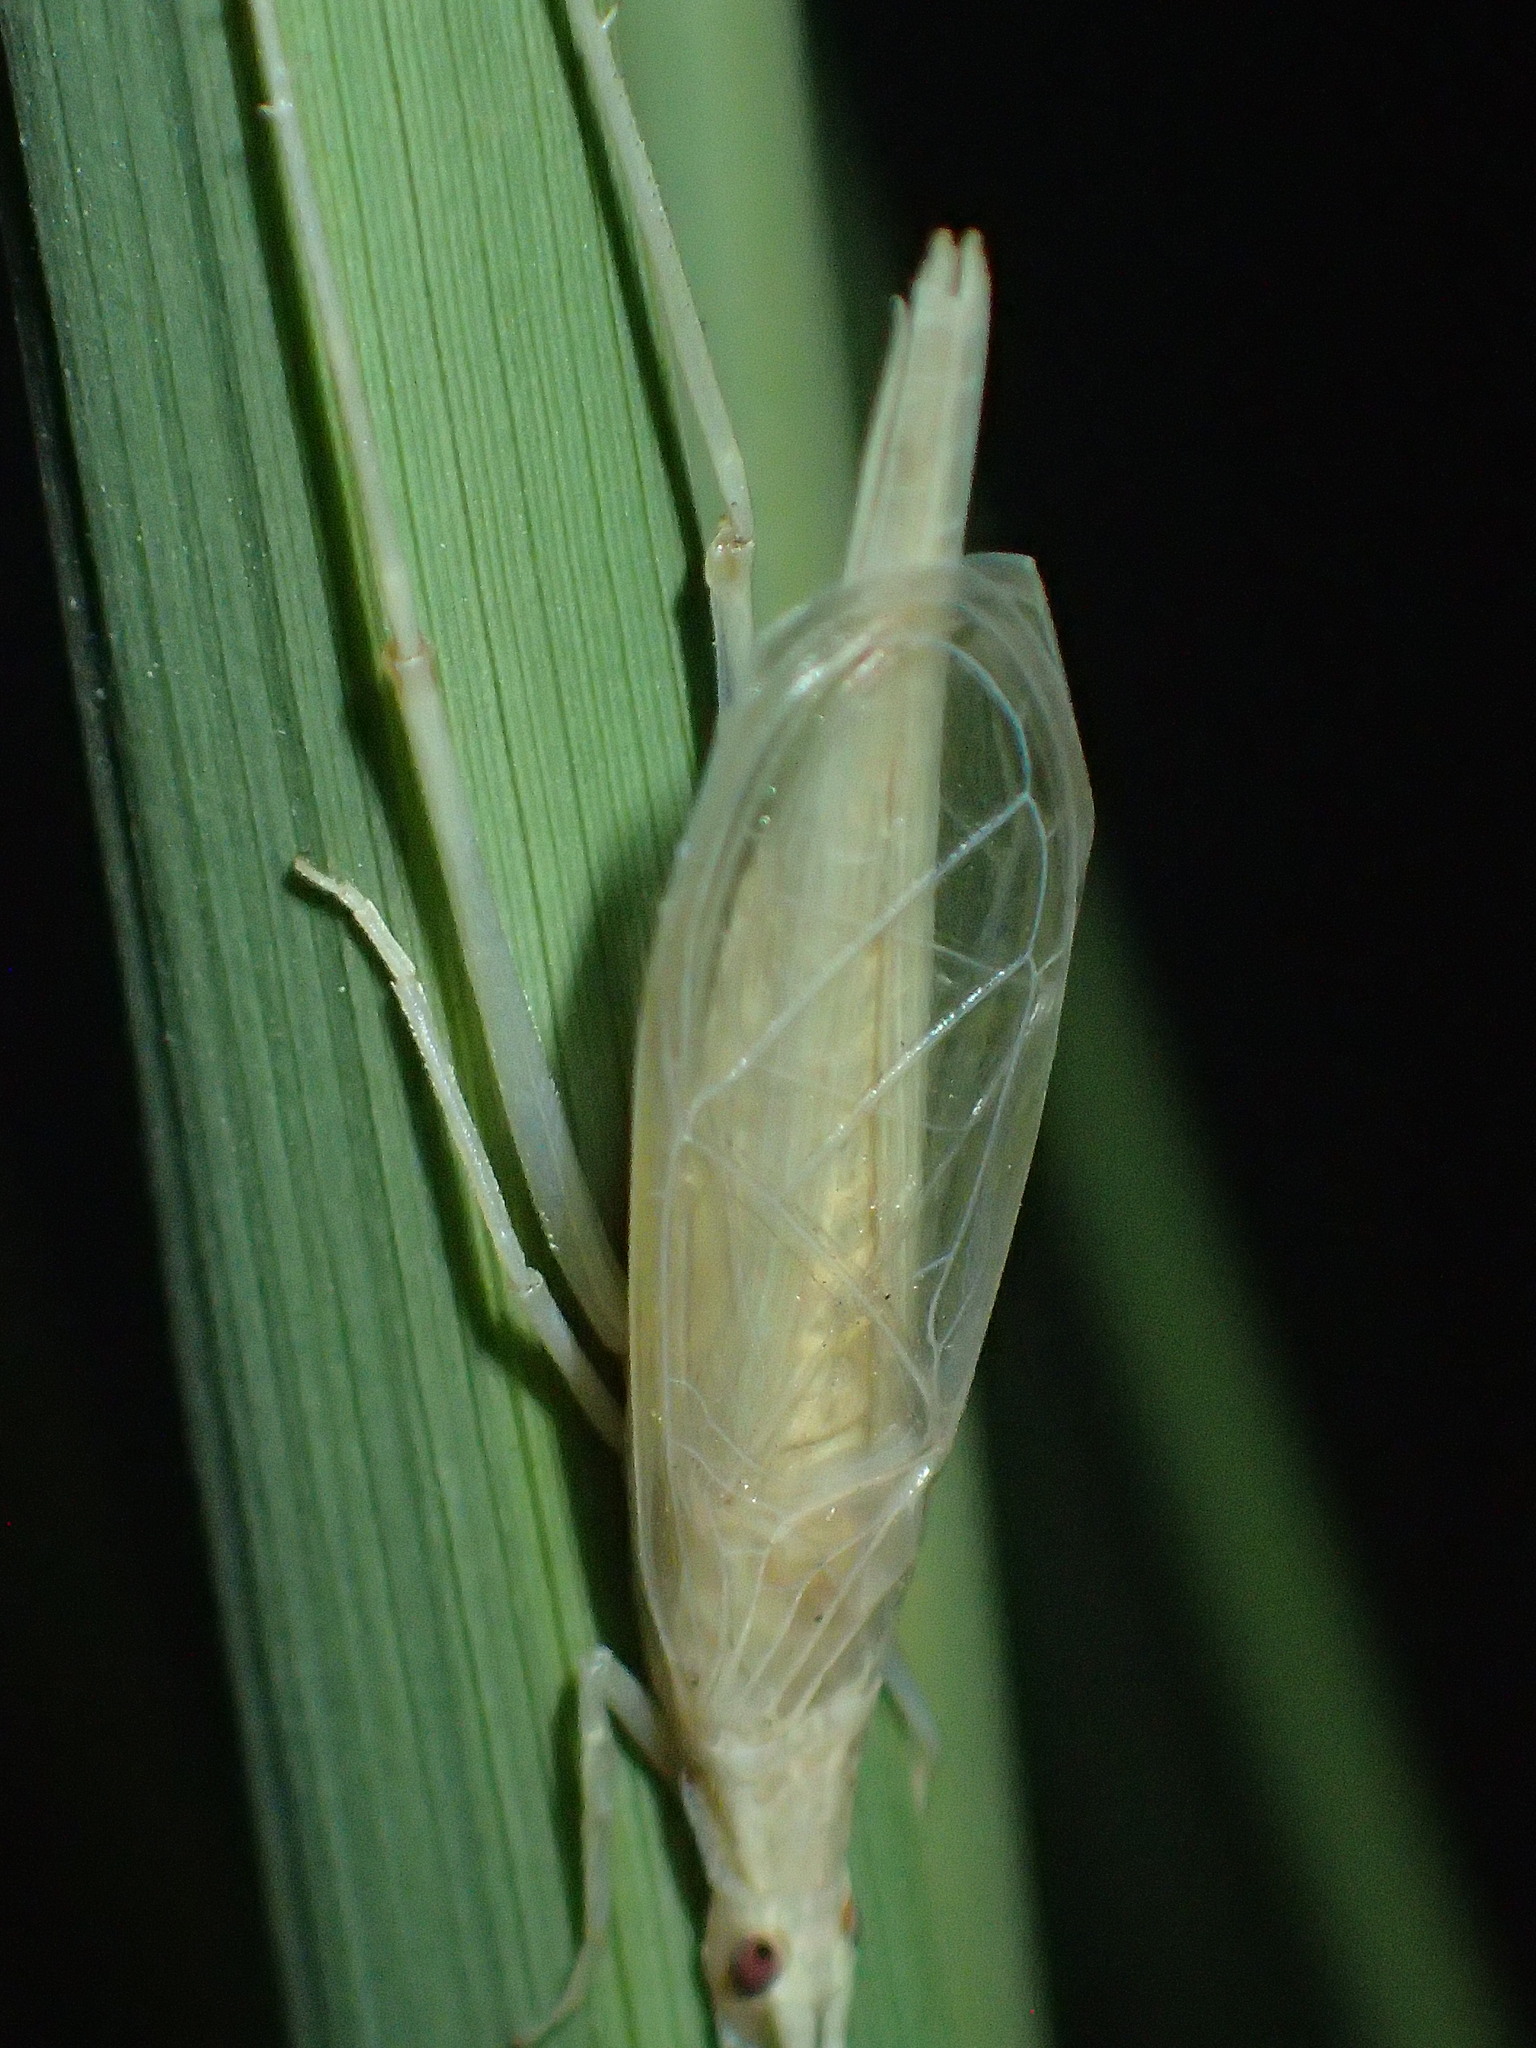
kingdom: Animalia
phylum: Arthropoda
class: Insecta
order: Orthoptera
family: Gryllidae
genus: Oecanthus
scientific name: Oecanthus adyeri
